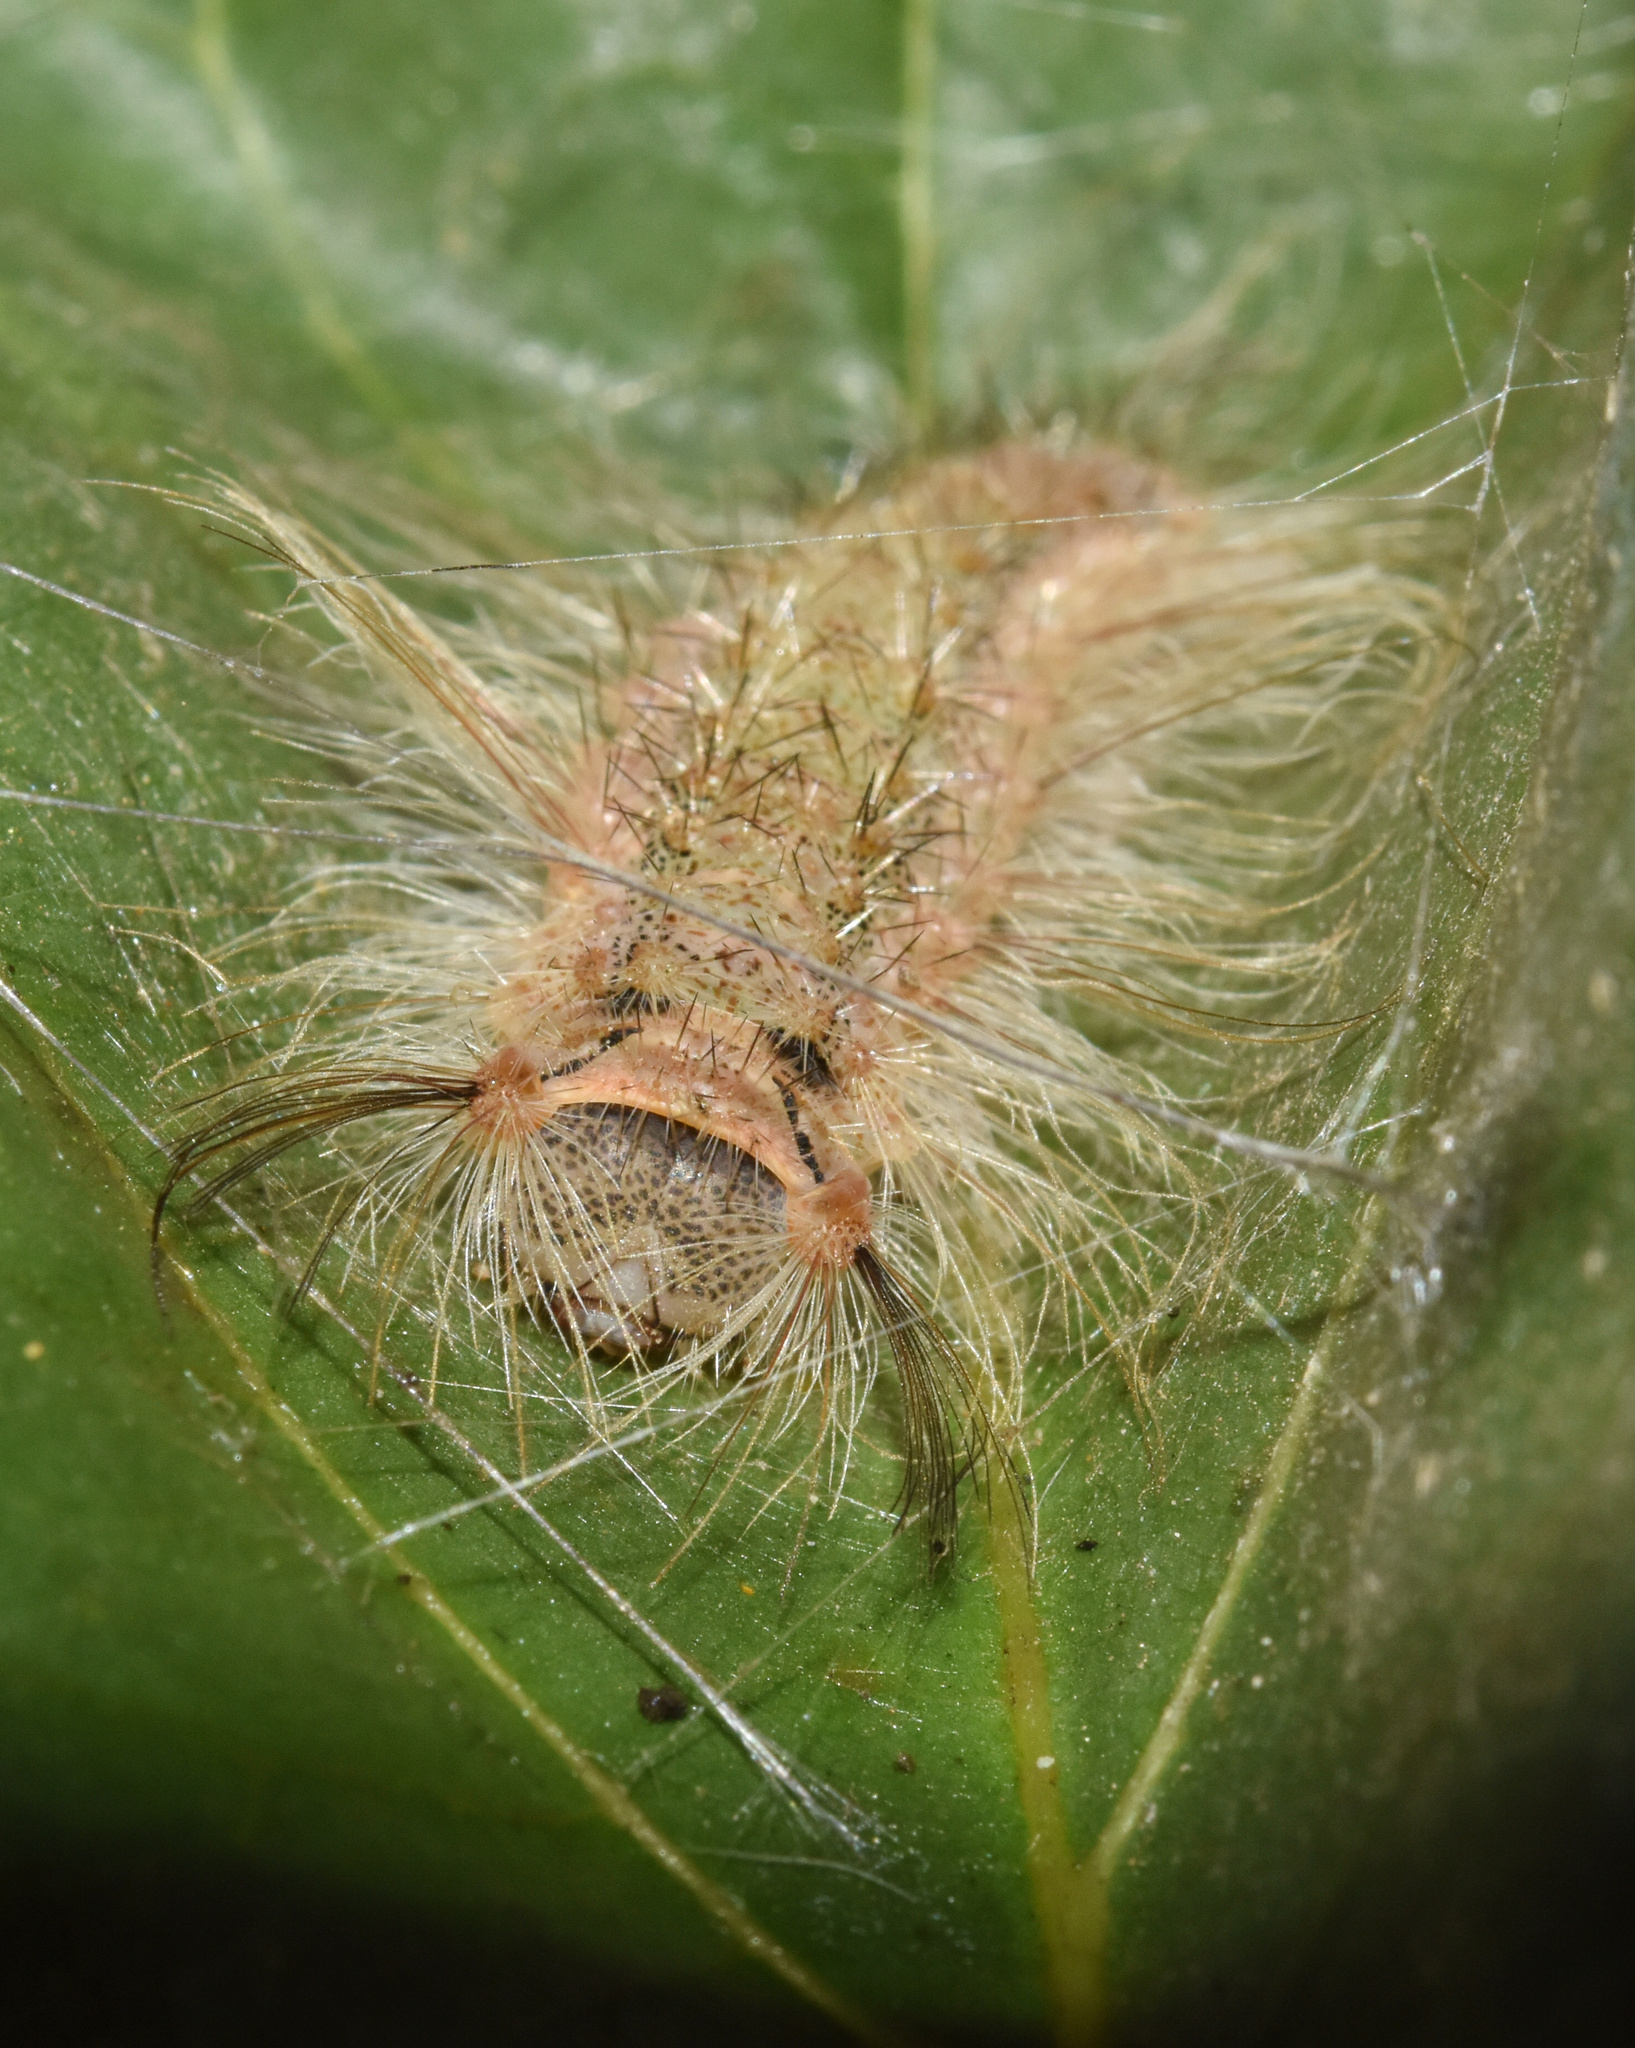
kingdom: Animalia
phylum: Arthropoda
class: Insecta
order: Lepidoptera
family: Erebidae
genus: Naroma
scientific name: Naroma varipes
